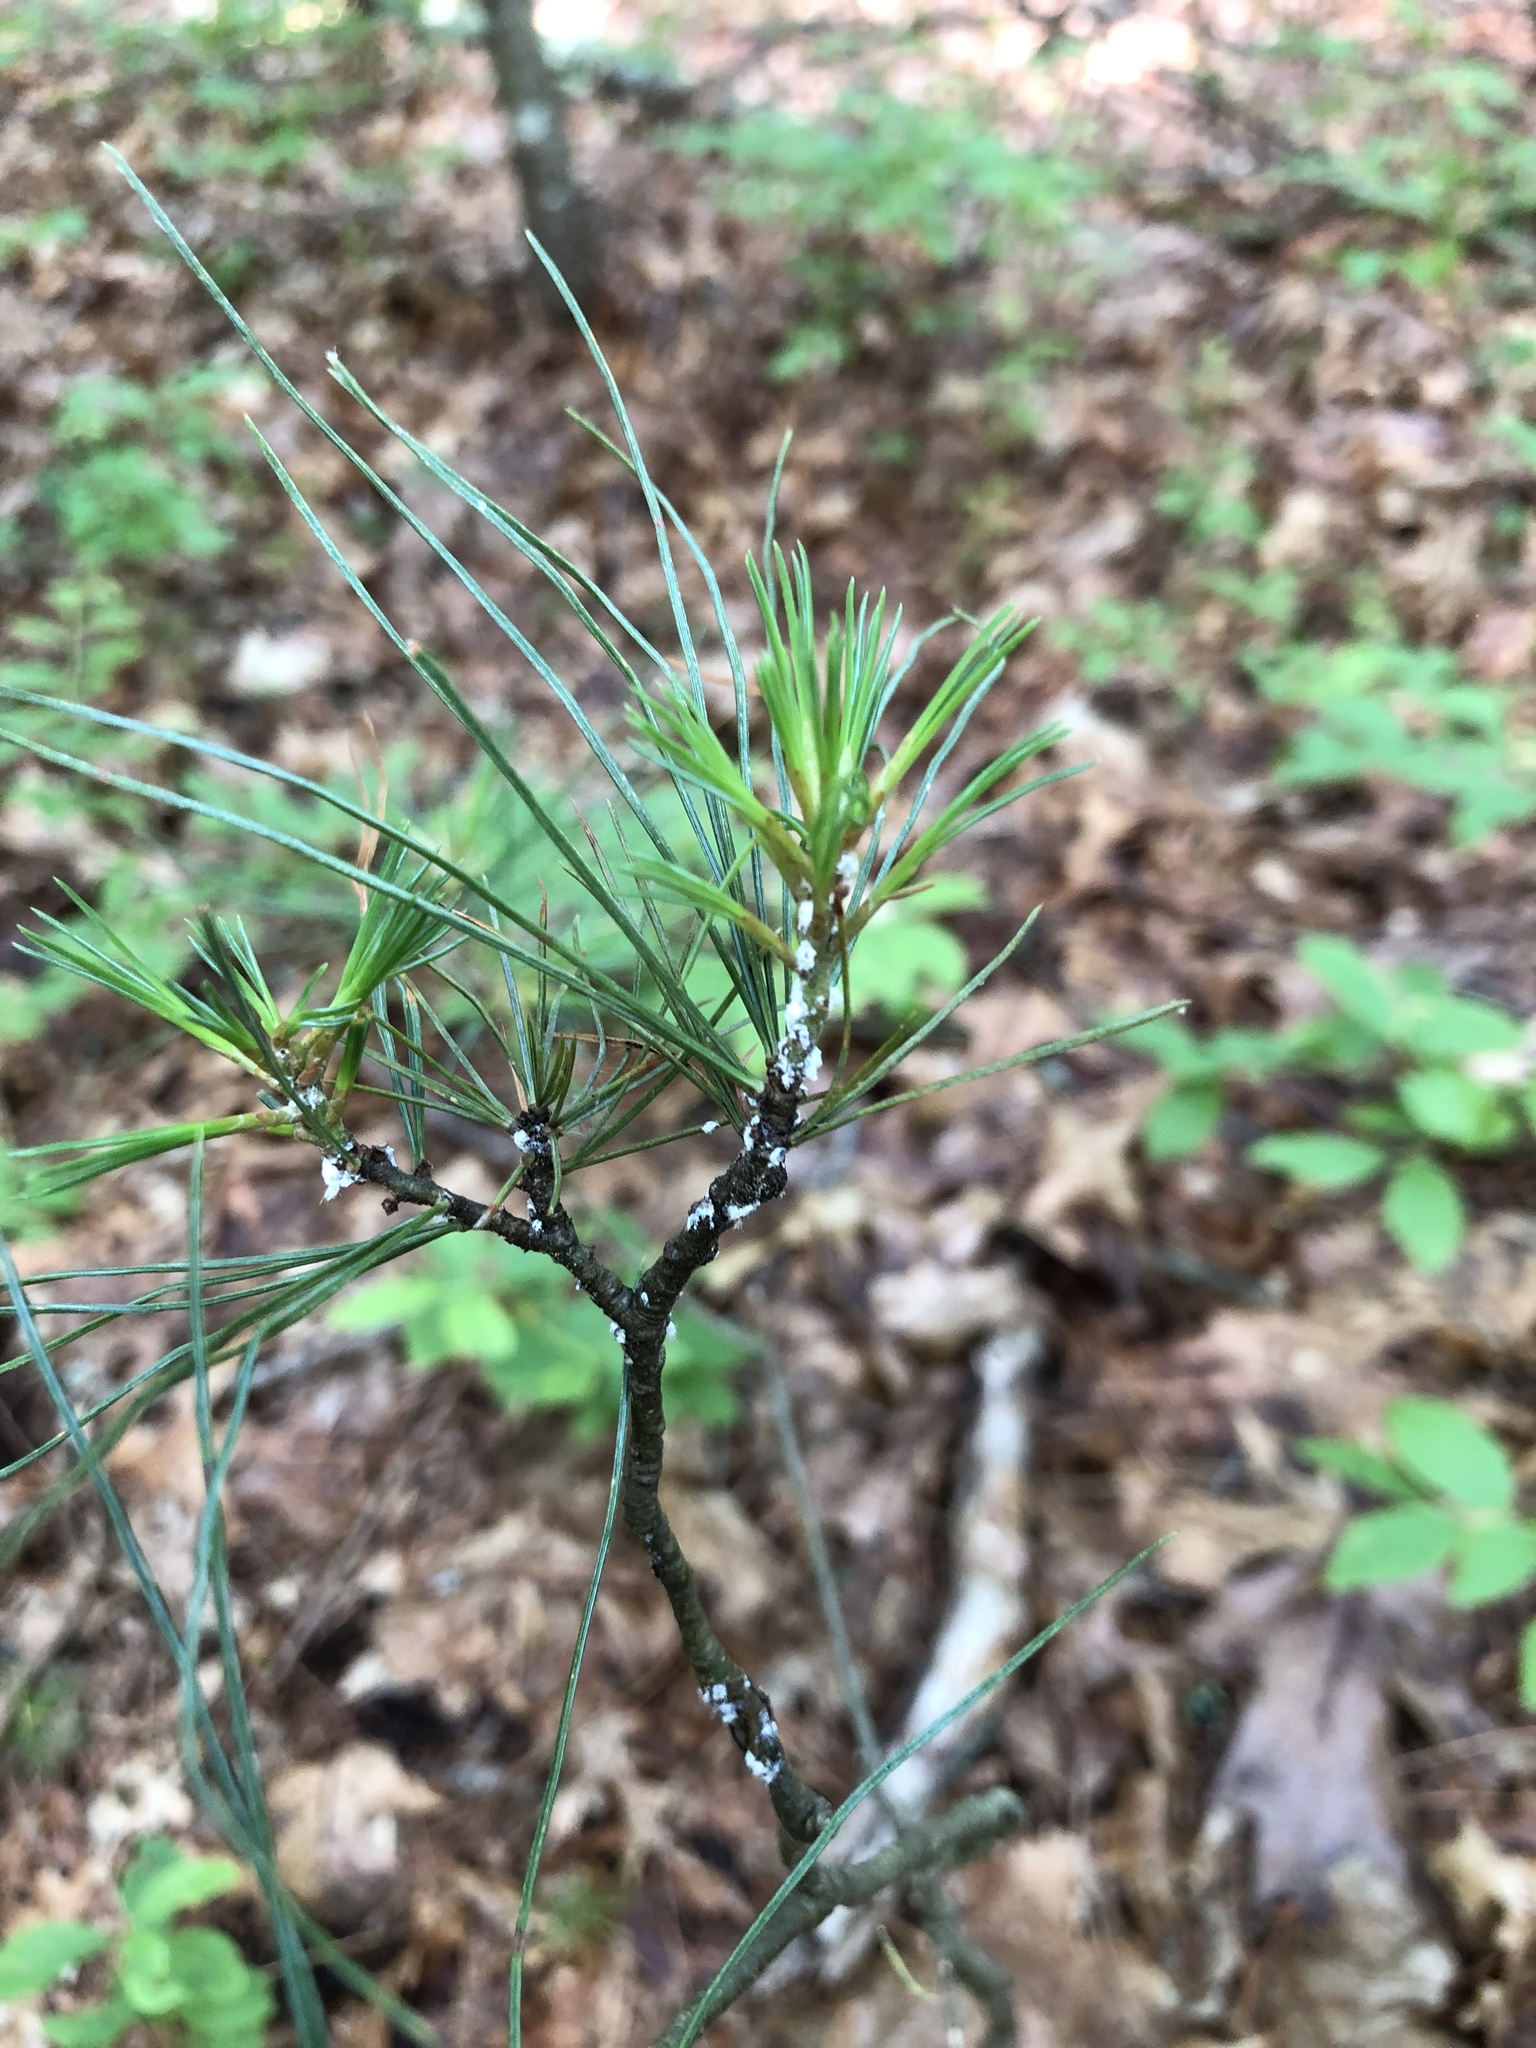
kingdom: Plantae
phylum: Tracheophyta
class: Pinopsida
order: Pinales
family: Pinaceae
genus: Pinus
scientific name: Pinus strobus
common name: Weymouth pine
